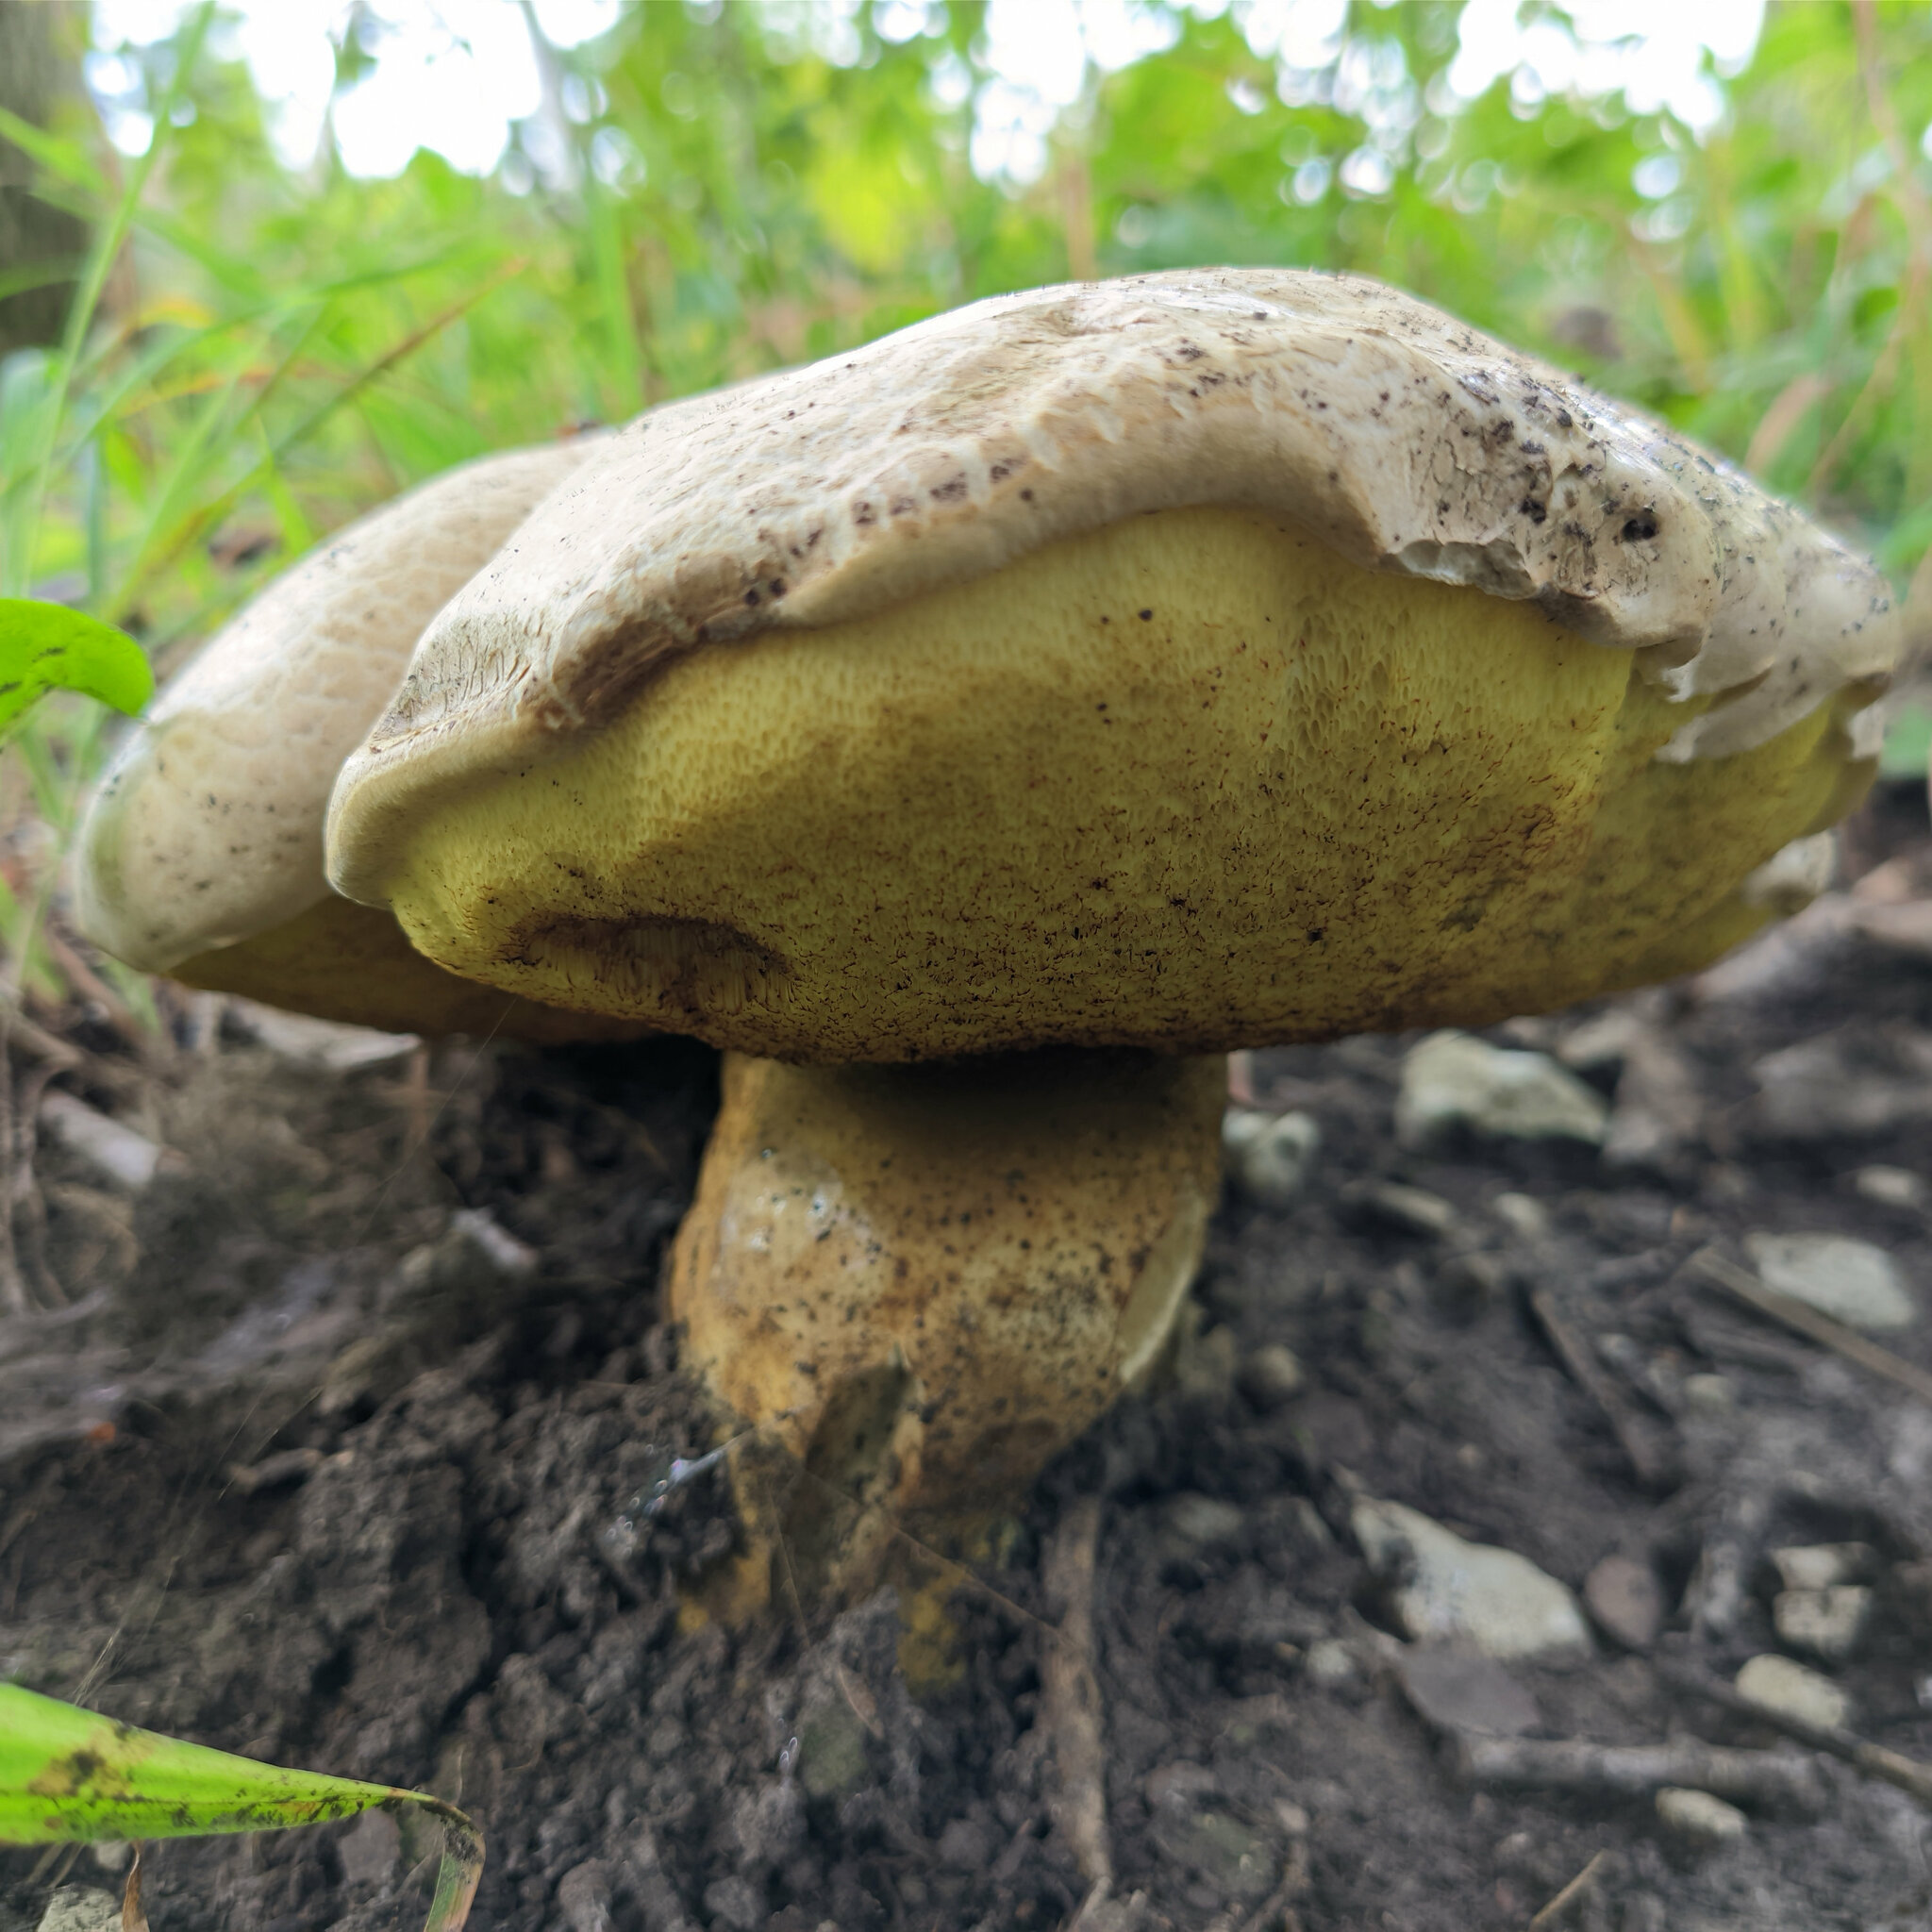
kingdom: Fungi
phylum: Basidiomycota
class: Agaricomycetes
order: Boletales
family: Boletaceae
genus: Caloboletus
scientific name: Caloboletus radicans
